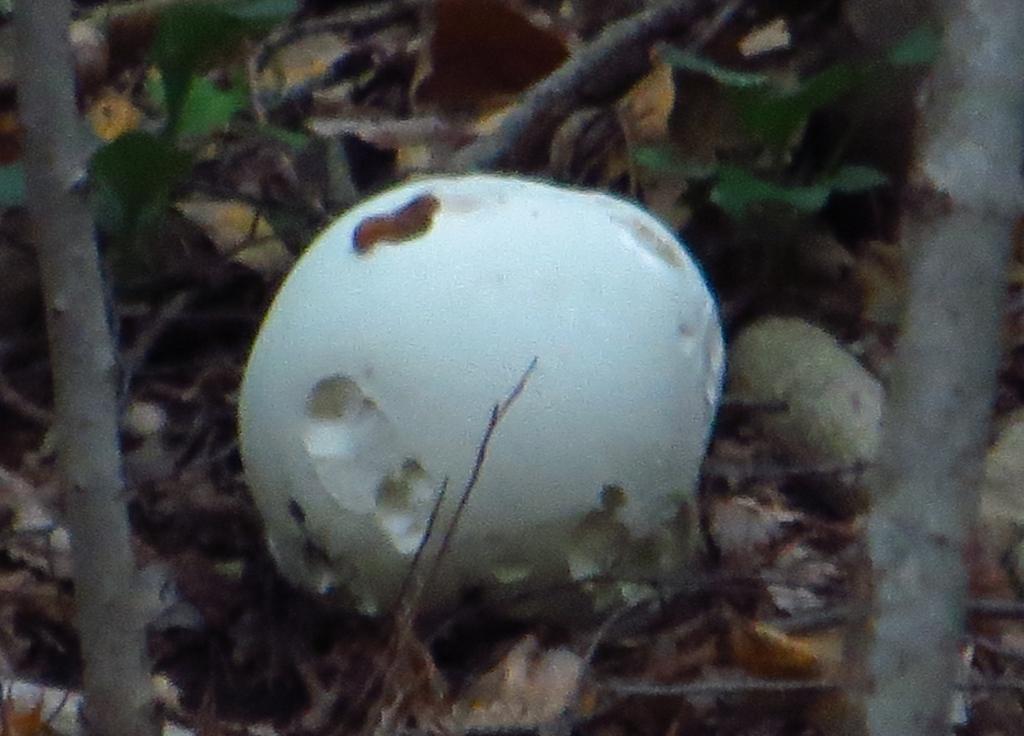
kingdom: Fungi
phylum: Basidiomycota
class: Agaricomycetes
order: Agaricales
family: Lycoperdaceae
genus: Calvatia
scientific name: Calvatia gigantea
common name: Giant puffball
